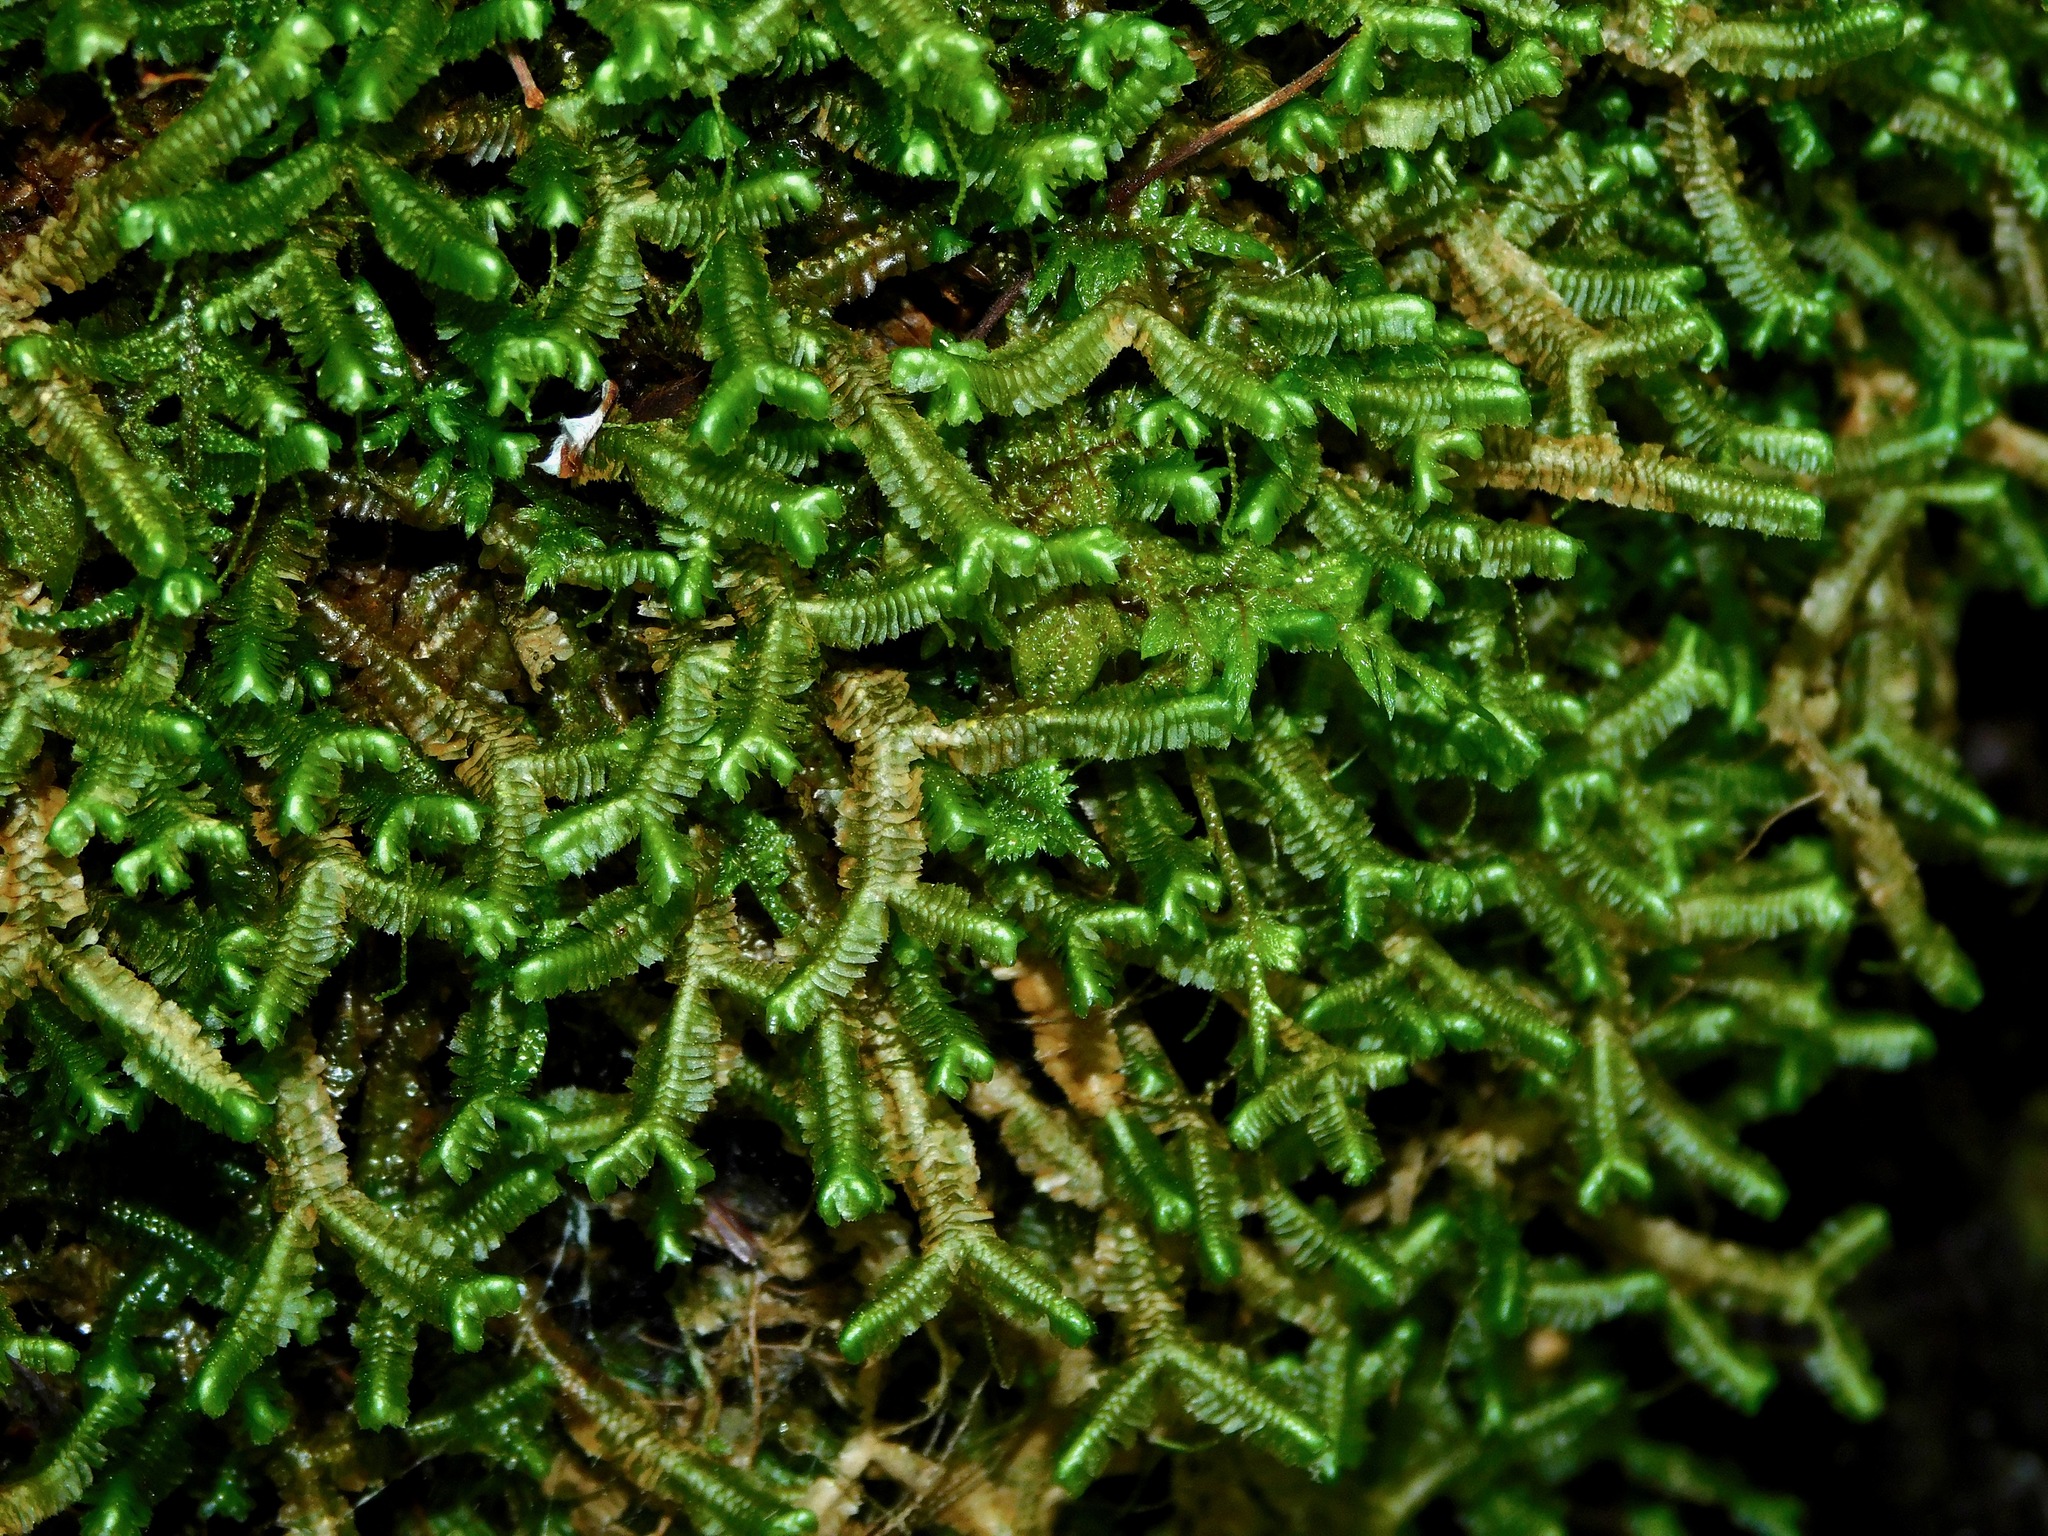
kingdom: Plantae
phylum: Marchantiophyta
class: Jungermanniopsida
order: Jungermanniales
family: Lepidoziaceae
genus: Bazzania
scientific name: Bazzania trilobata
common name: Three-lobed whipwort
